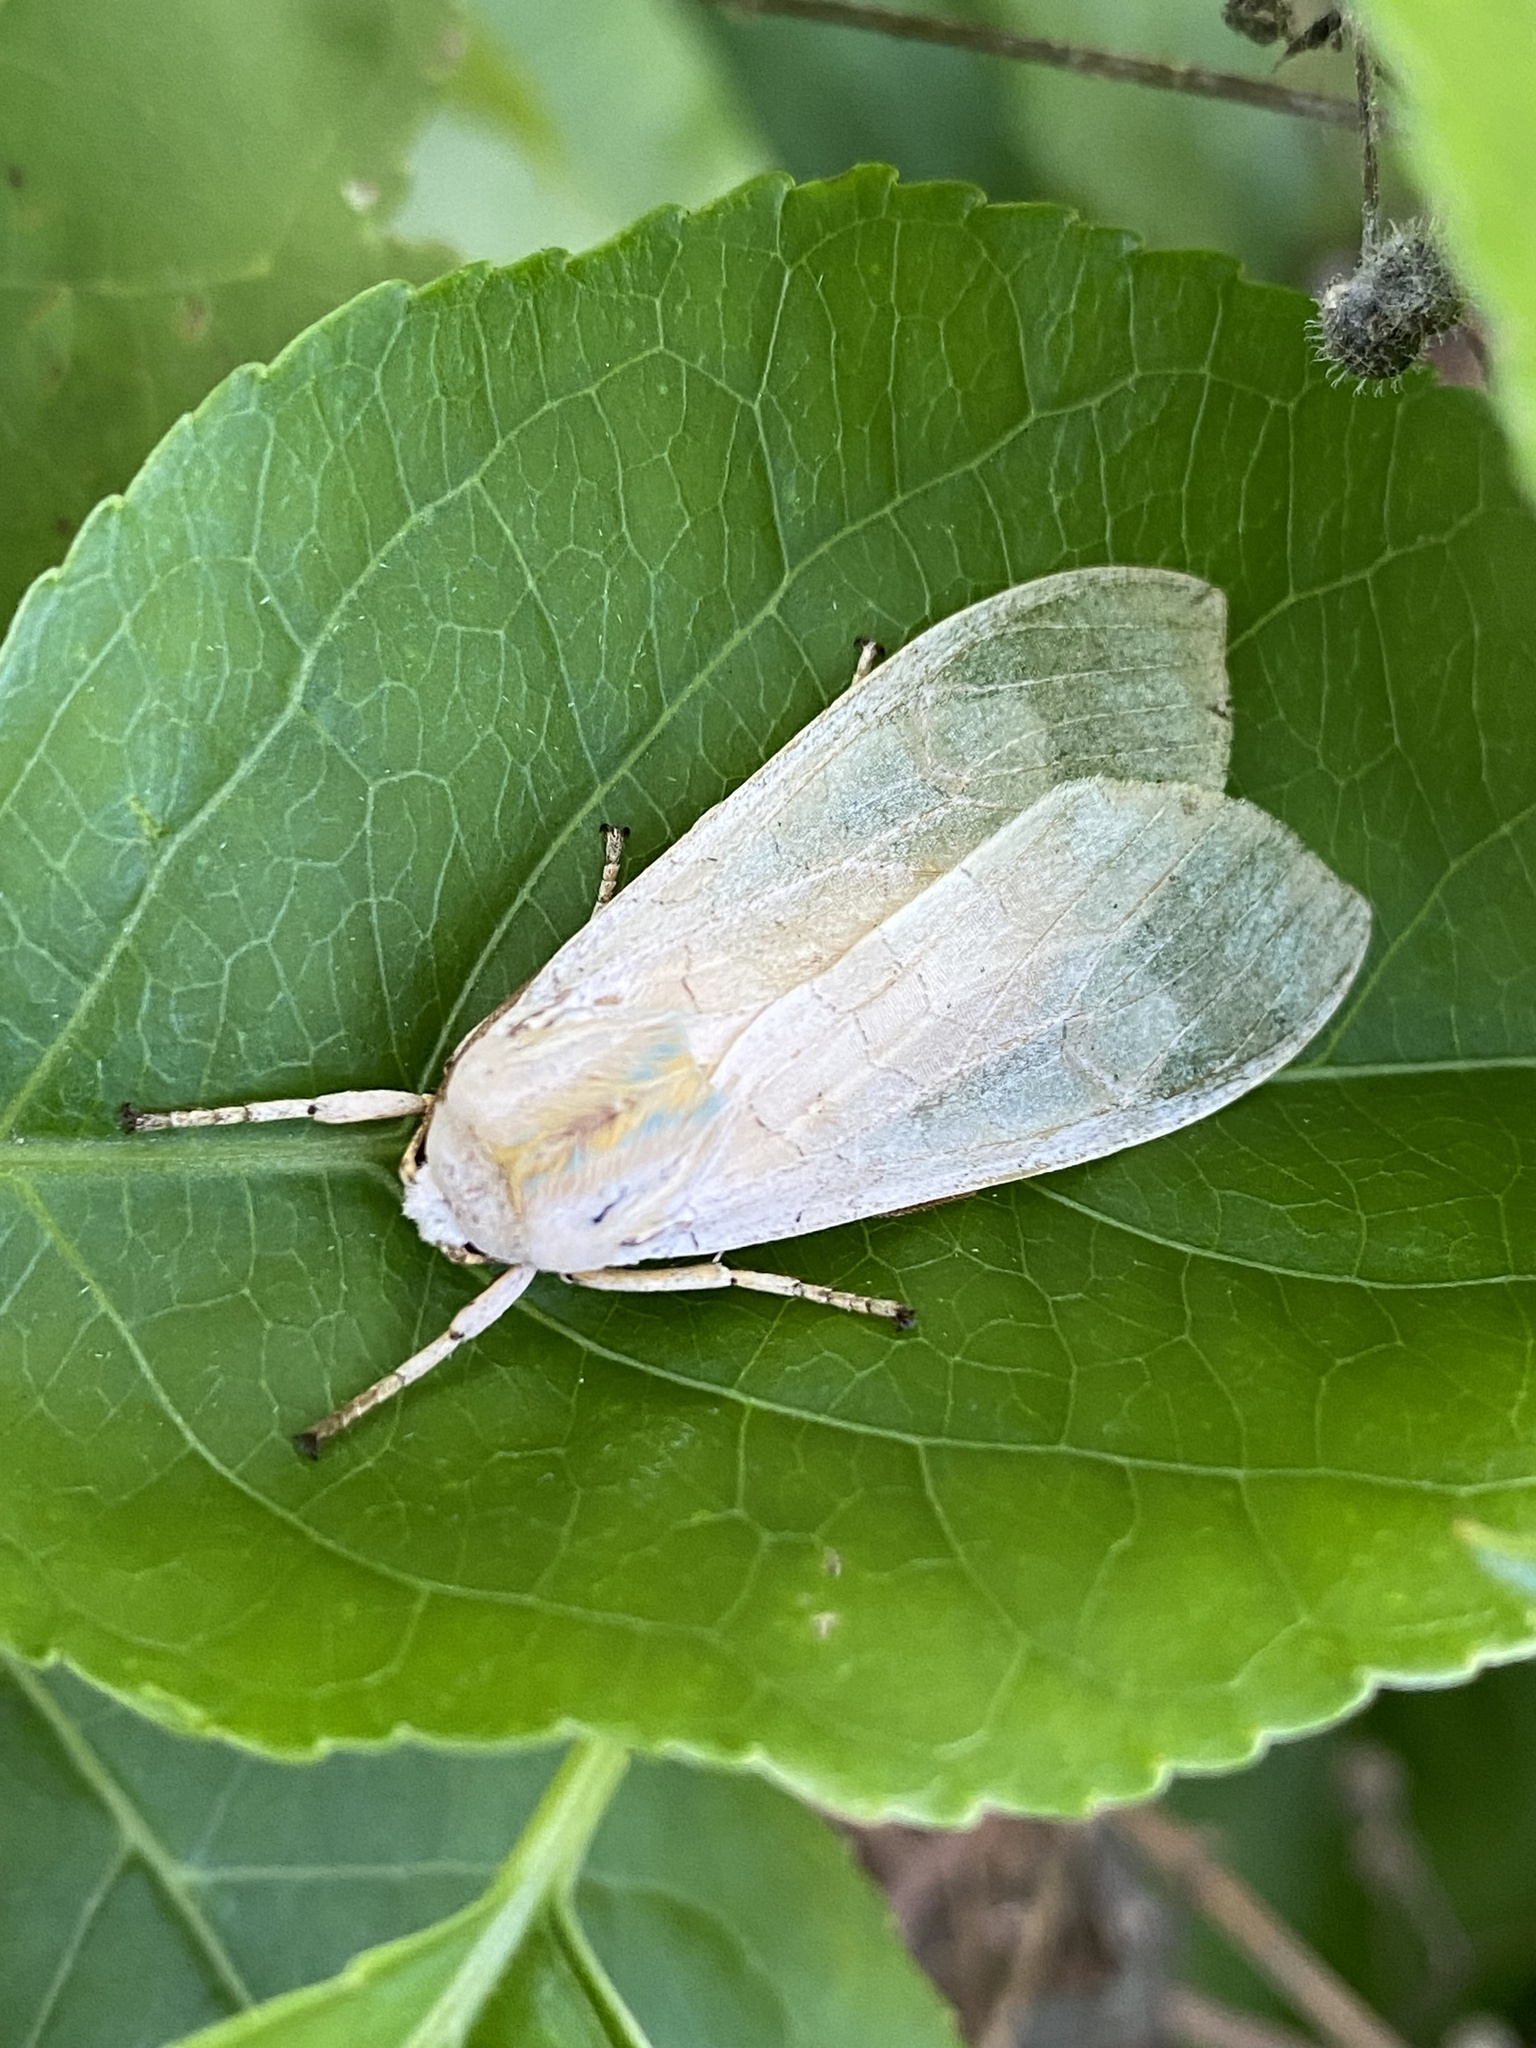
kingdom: Animalia
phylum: Arthropoda
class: Insecta
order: Lepidoptera
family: Erebidae
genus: Halysidota
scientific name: Halysidota
